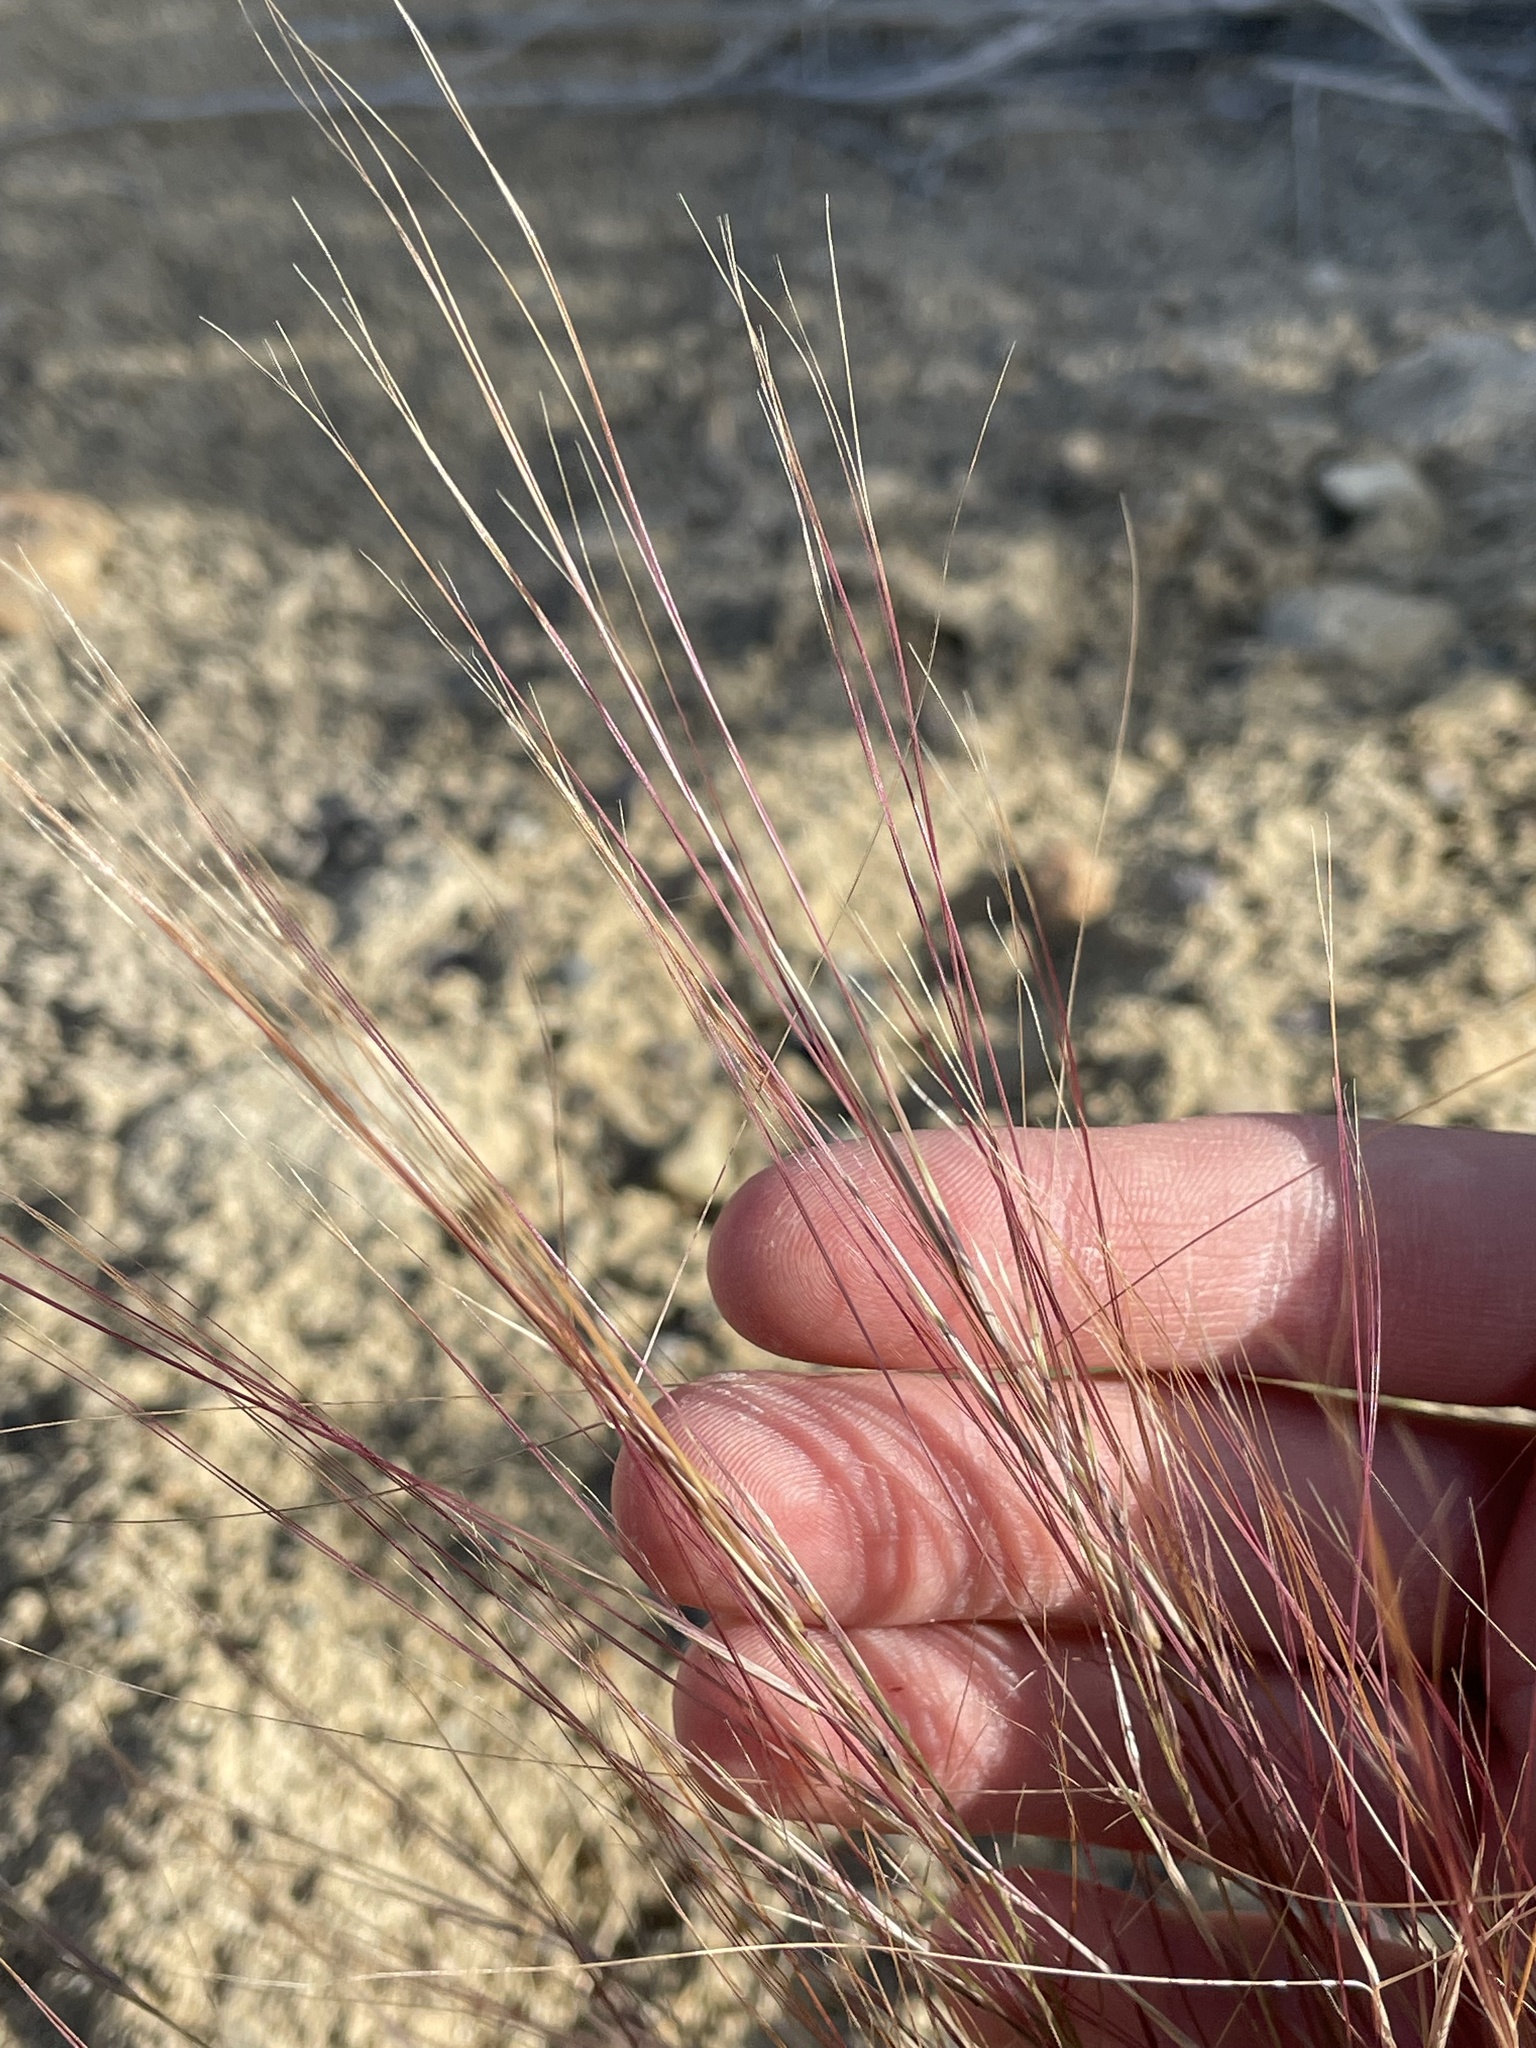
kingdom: Plantae
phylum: Tracheophyta
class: Liliopsida
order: Poales
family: Poaceae
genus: Aristida
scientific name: Aristida purpurea
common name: Purple threeawn
